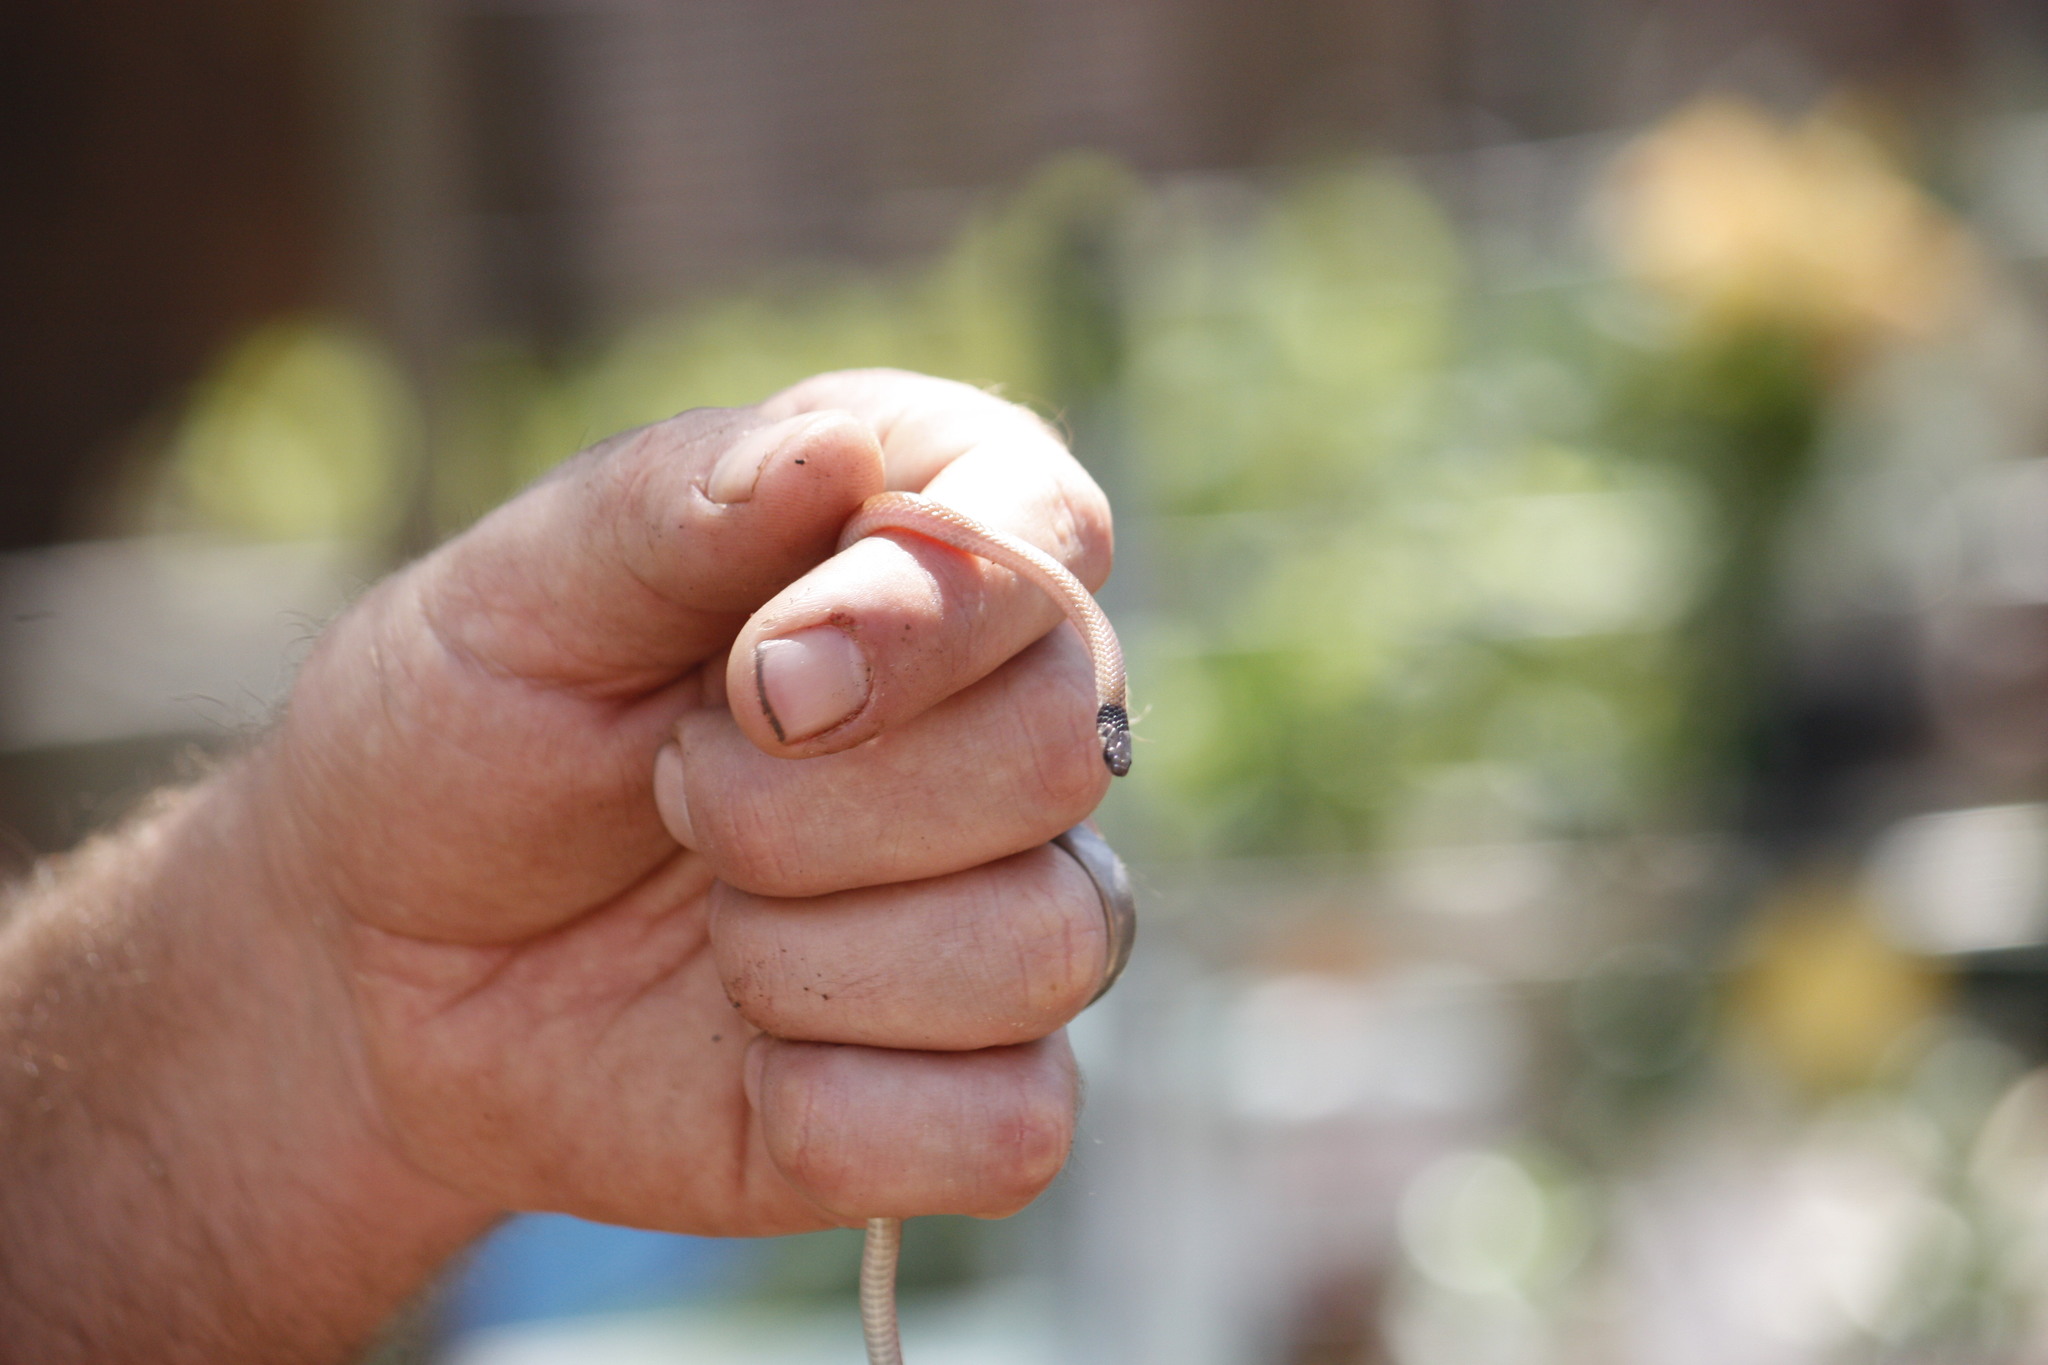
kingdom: Animalia
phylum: Chordata
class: Squamata
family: Atractaspididae
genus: Aparallactus
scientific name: Aparallactus capensis
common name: Cape centipede eater
